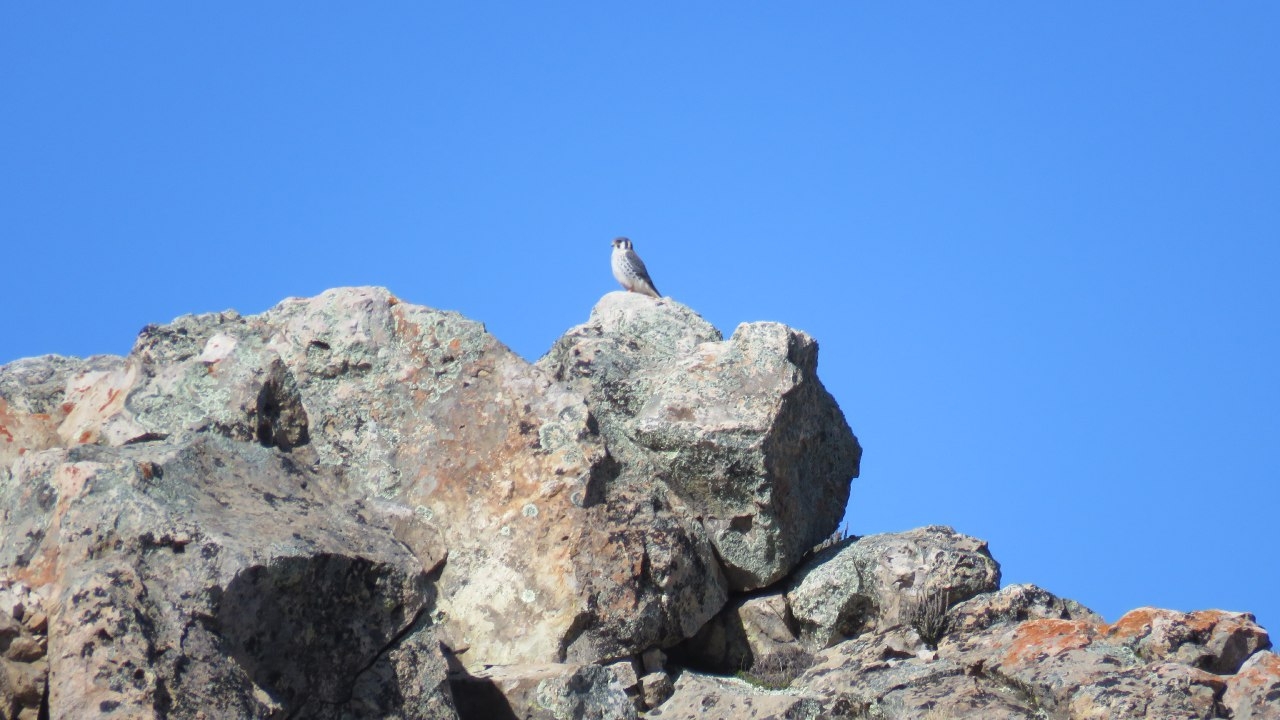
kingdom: Animalia
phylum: Chordata
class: Aves
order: Falconiformes
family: Falconidae
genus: Falco
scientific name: Falco sparverius
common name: American kestrel
